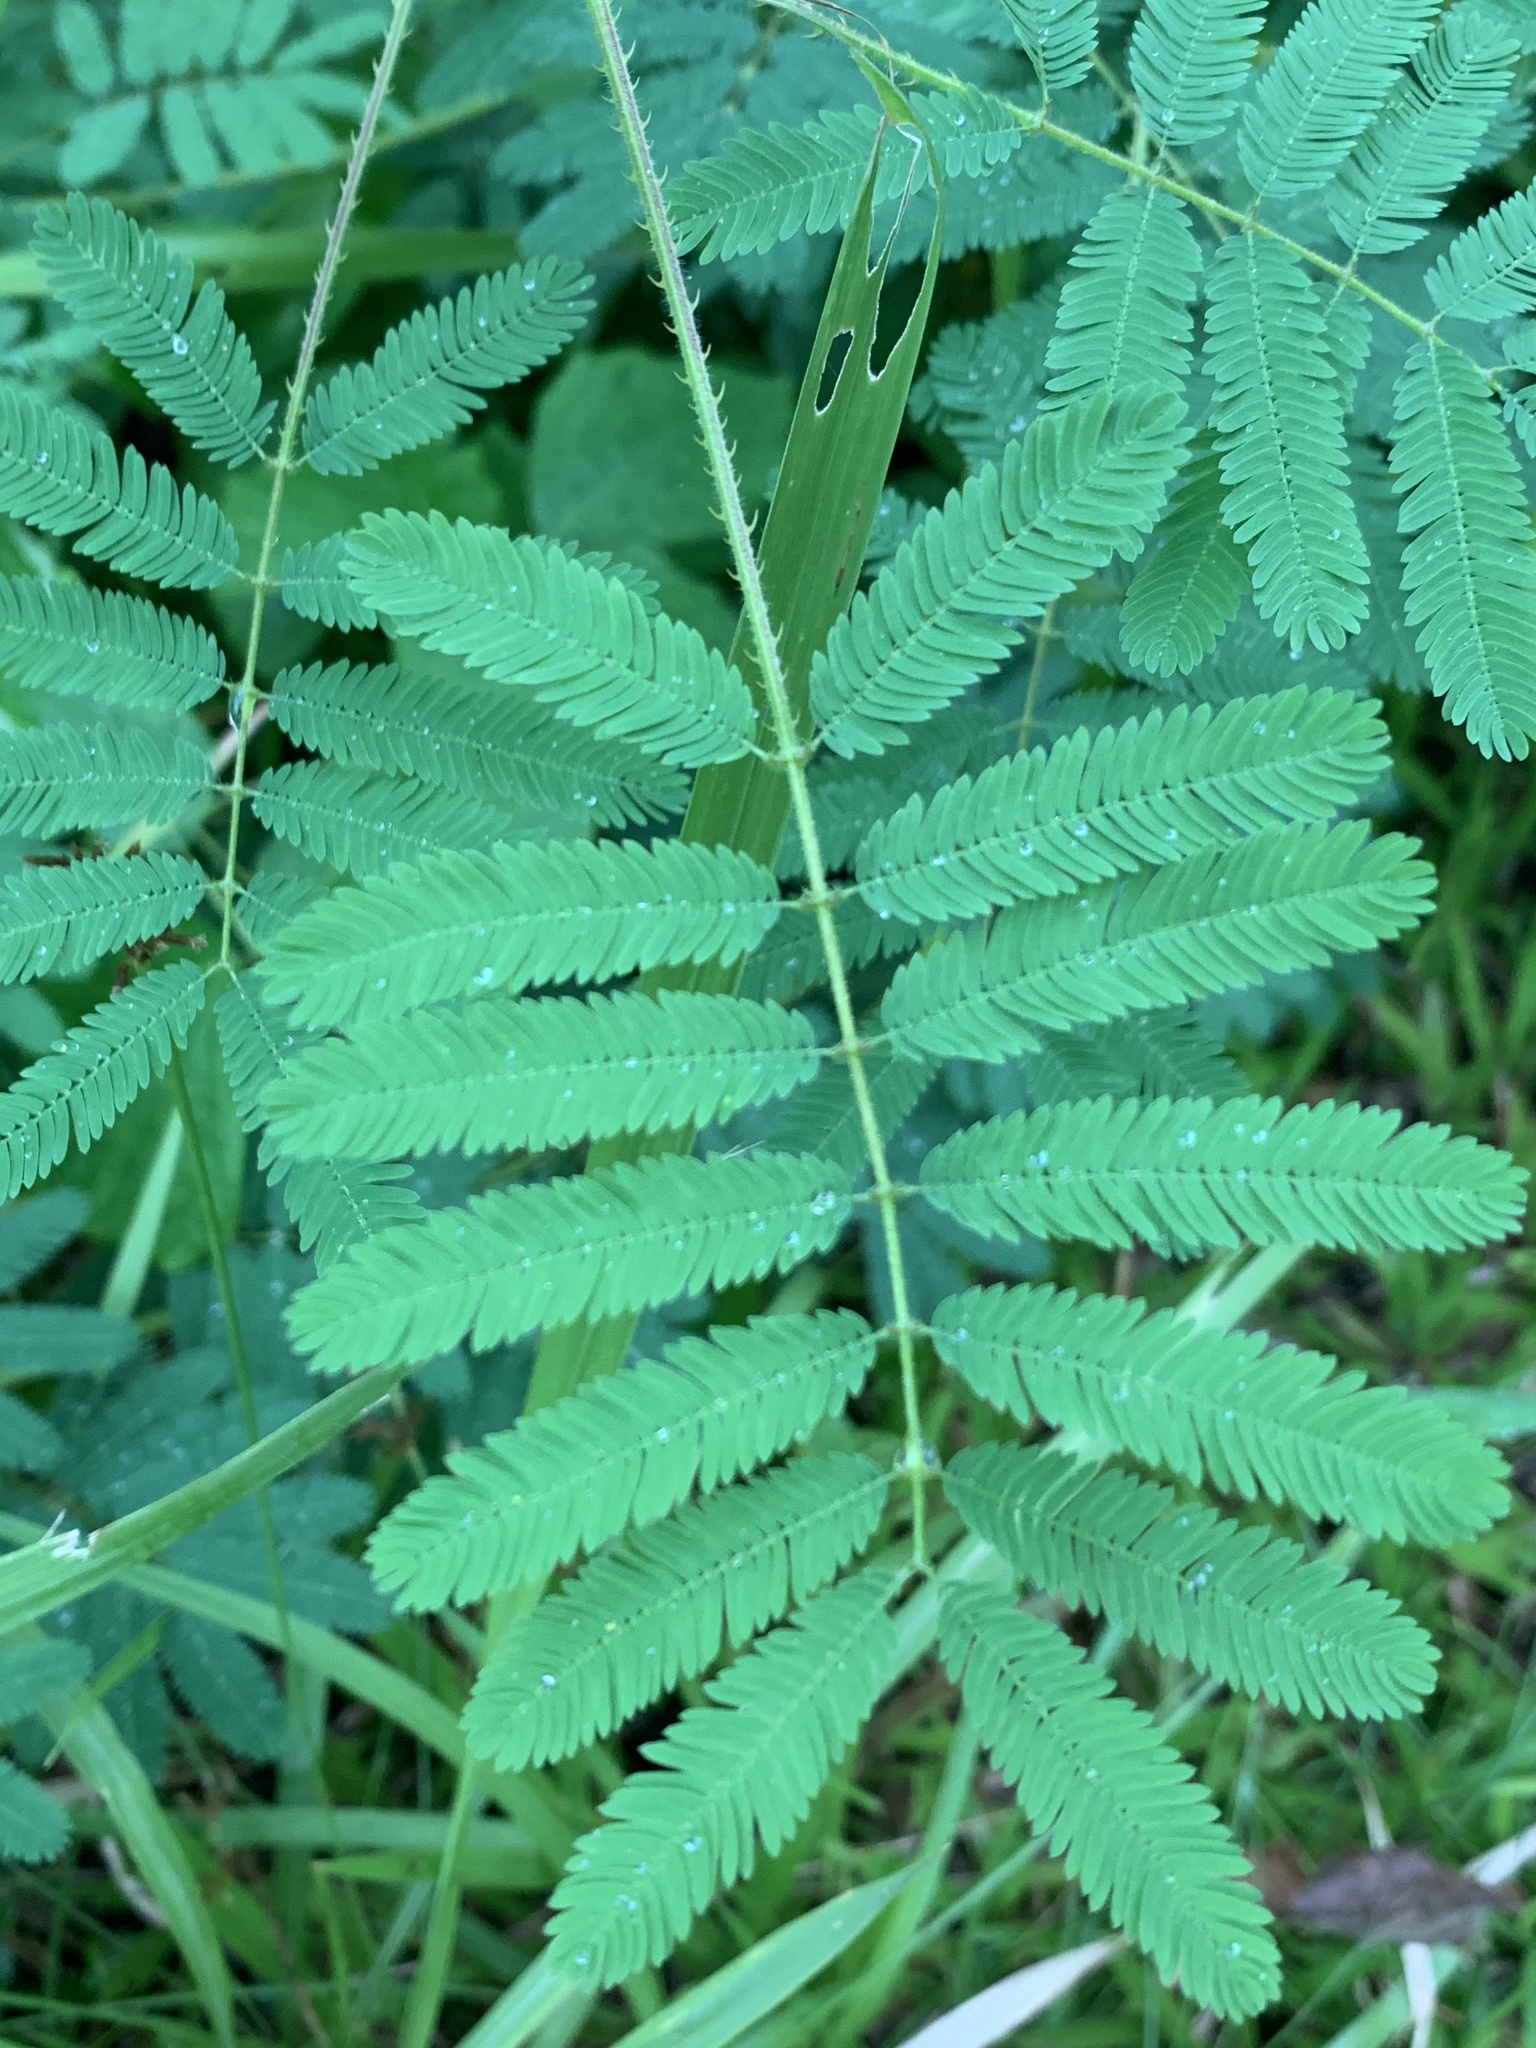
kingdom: Plantae
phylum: Tracheophyta
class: Magnoliopsida
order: Fabales
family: Fabaceae
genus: Mimosa
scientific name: Mimosa diplotricha
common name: Giant sensitive-plant
